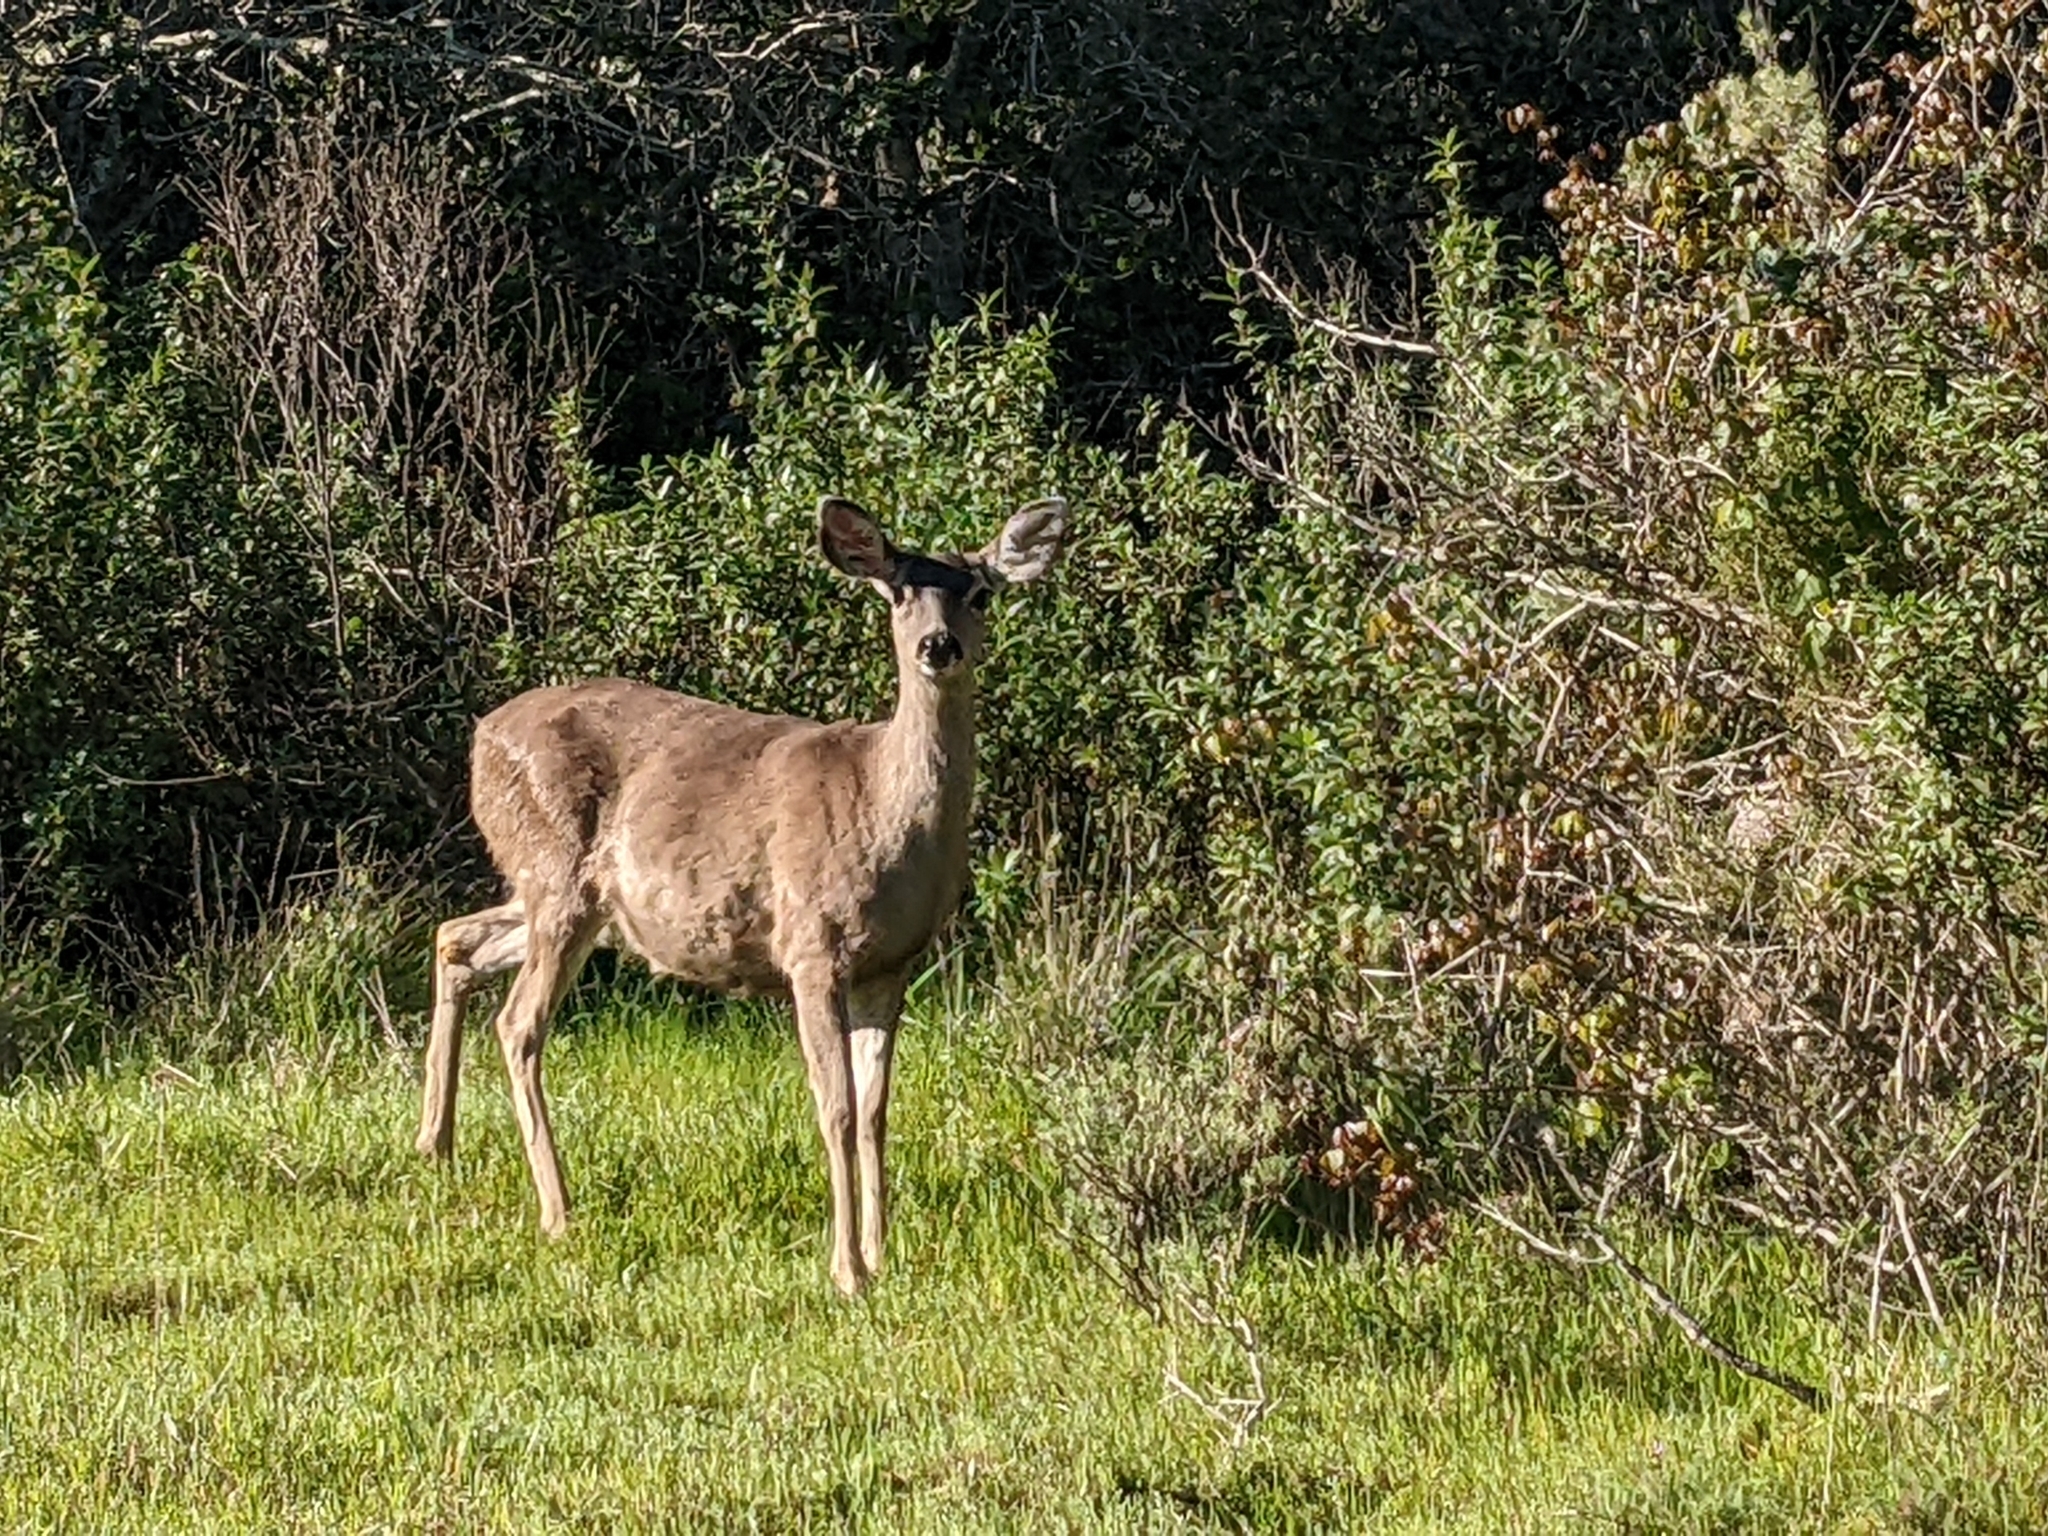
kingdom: Animalia
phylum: Chordata
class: Mammalia
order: Artiodactyla
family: Cervidae
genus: Odocoileus
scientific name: Odocoileus hemionus
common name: Mule deer
